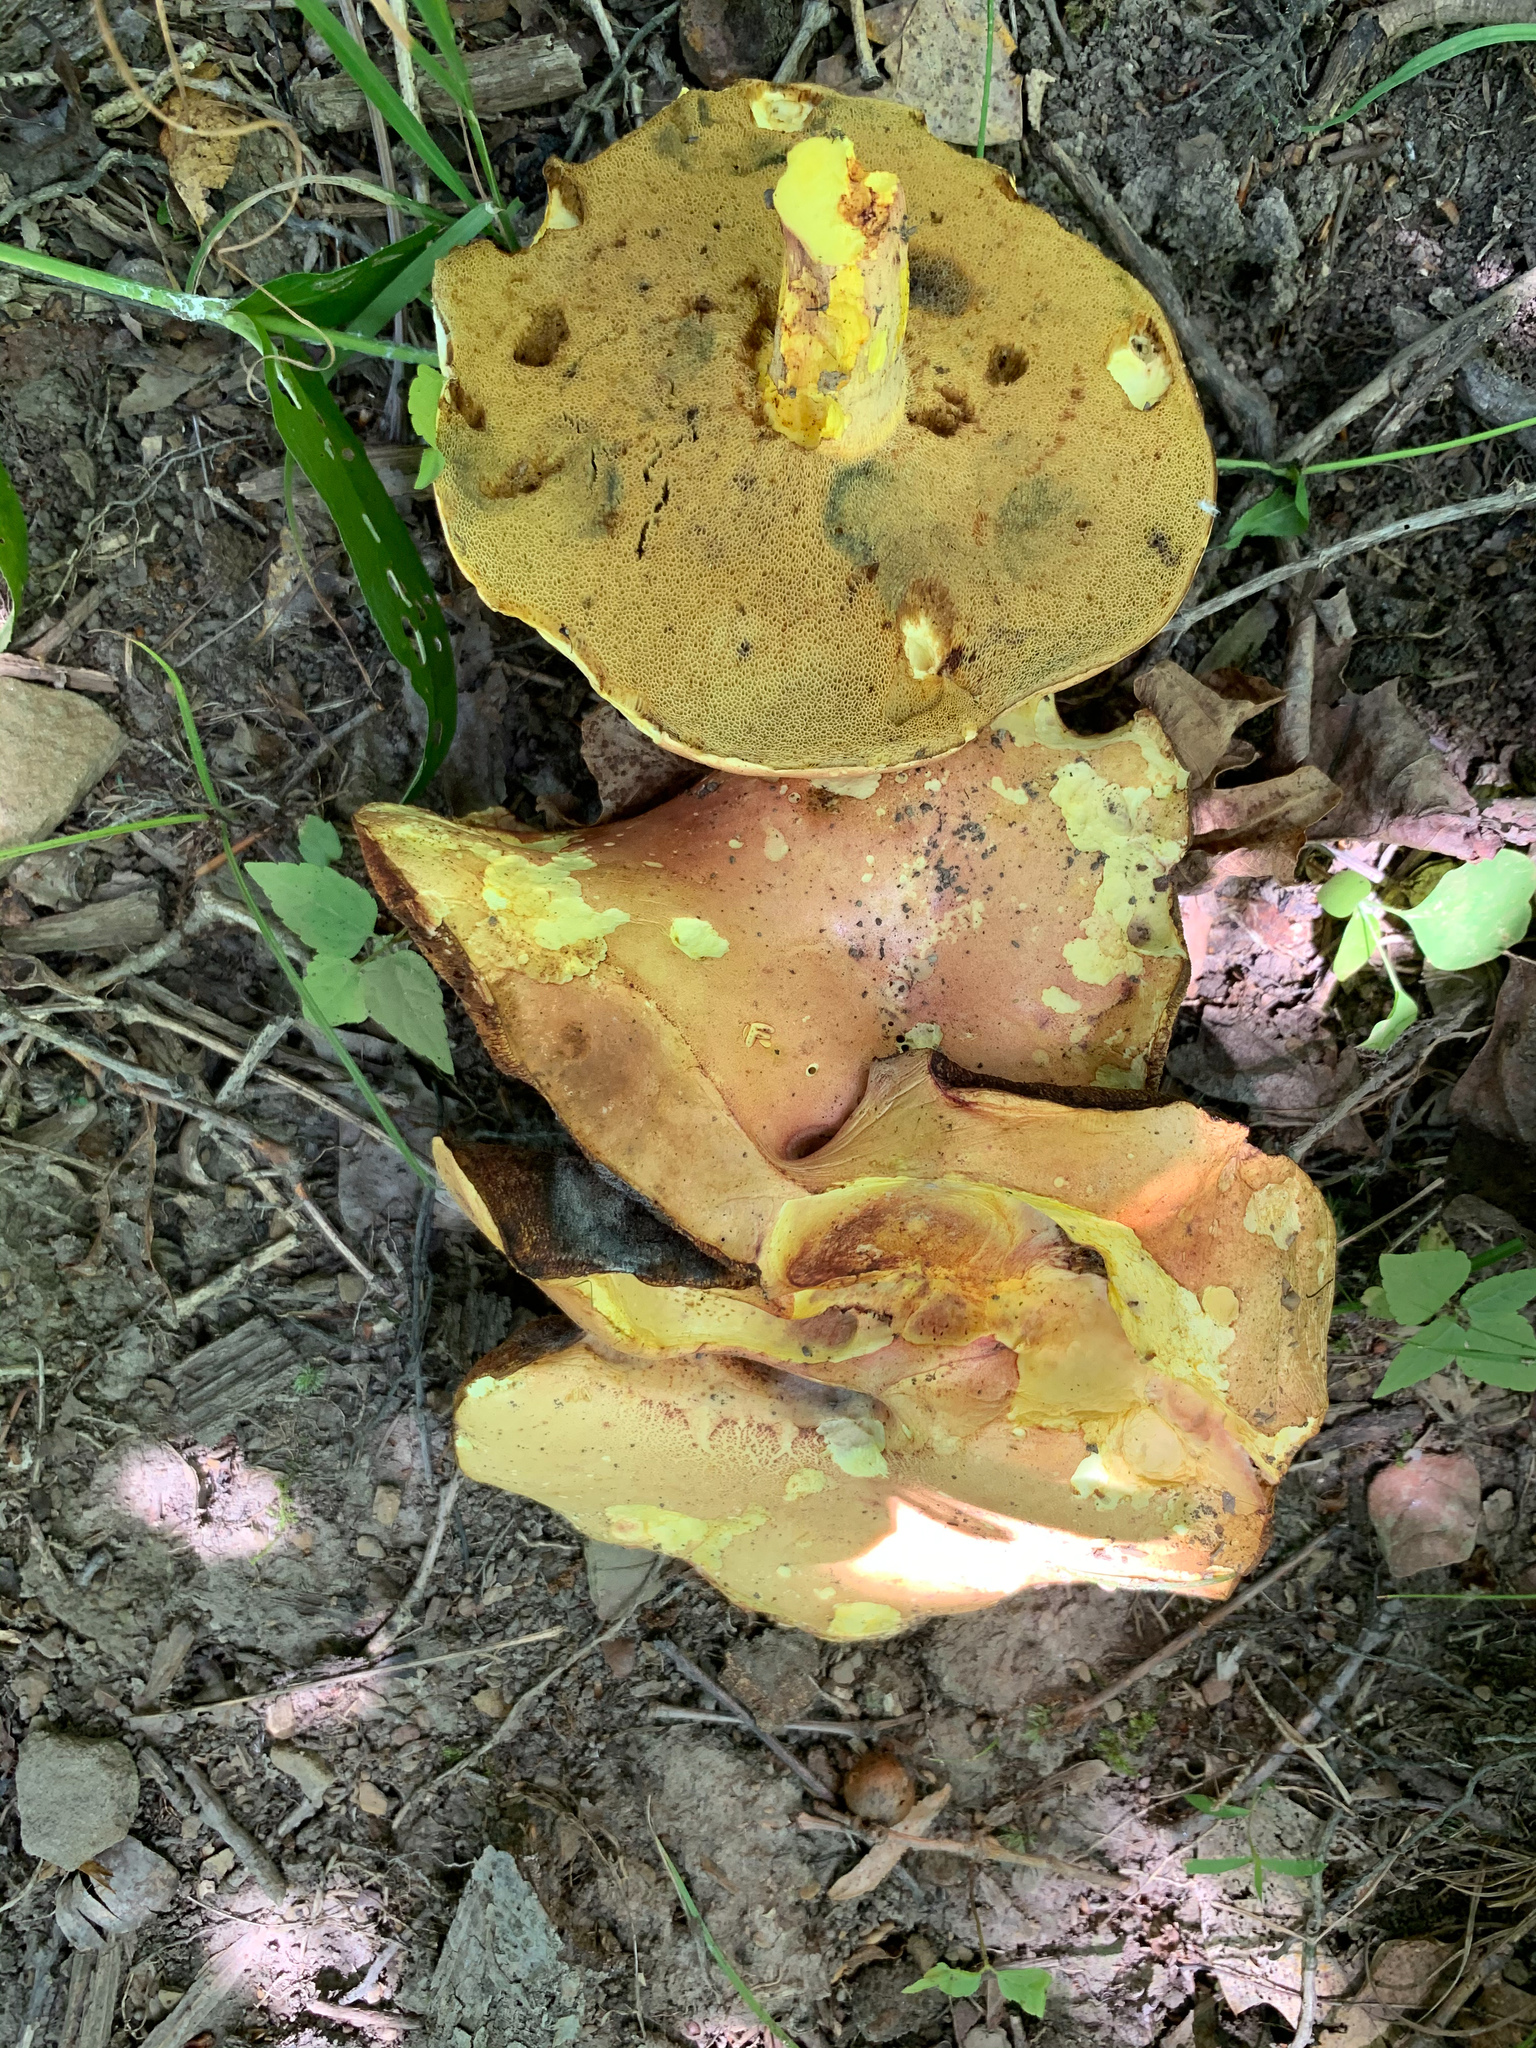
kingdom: Fungi
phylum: Basidiomycota
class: Agaricomycetes
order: Boletales
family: Boletaceae
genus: Lanmaoa
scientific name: Lanmaoa pallidorosea
